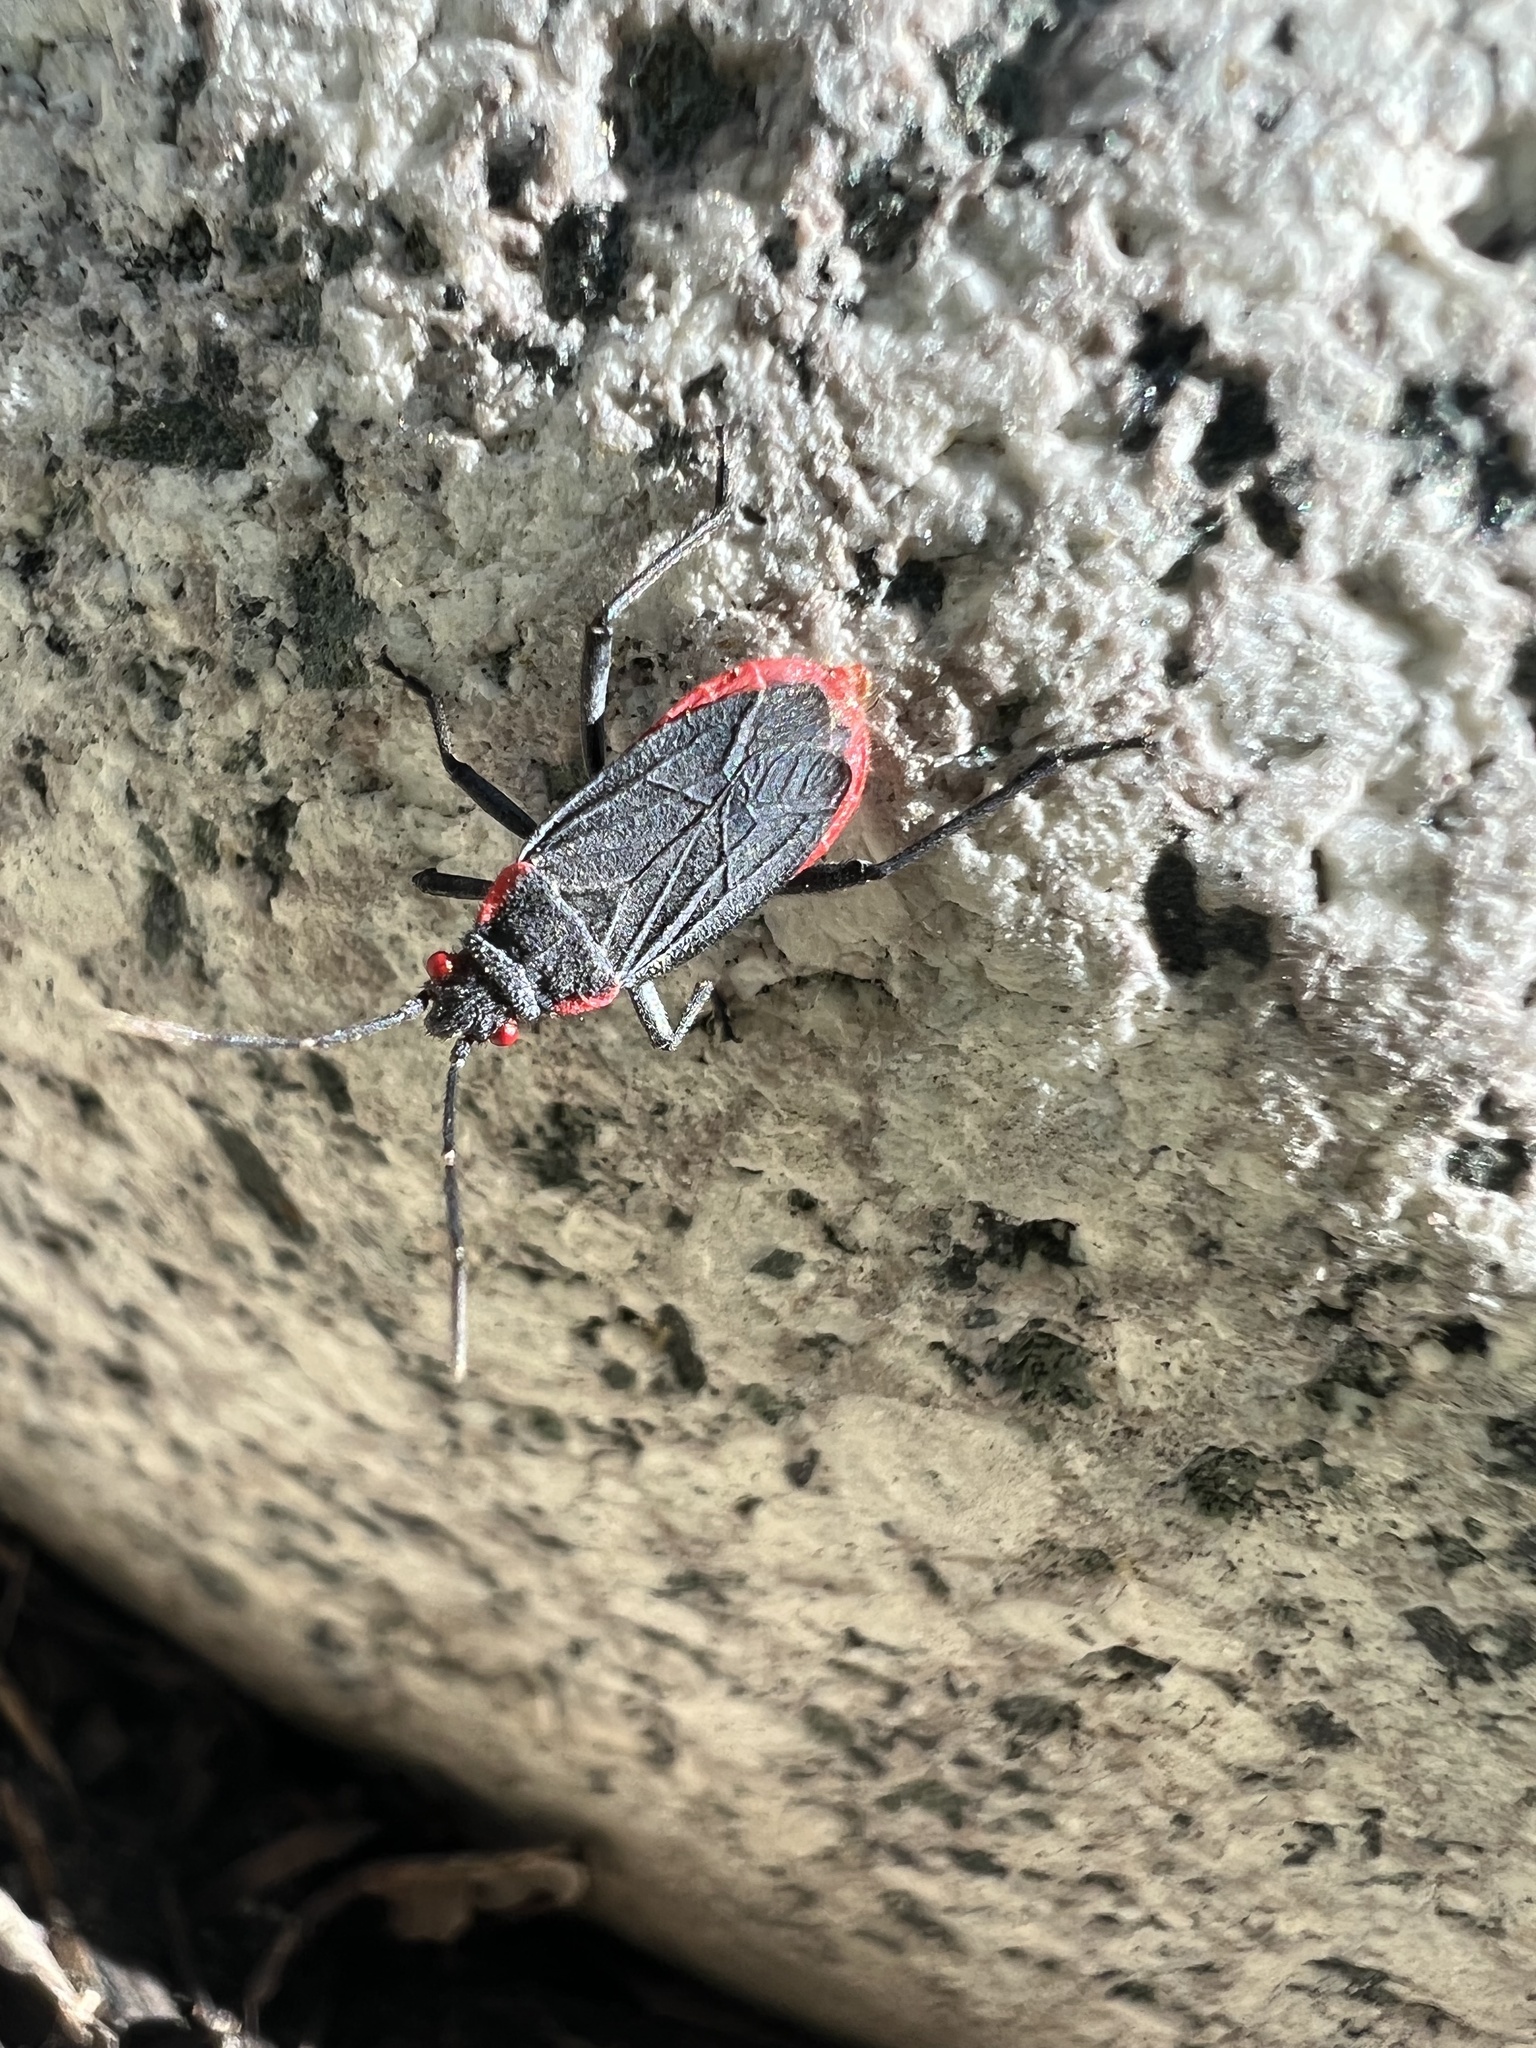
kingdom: Animalia
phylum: Arthropoda
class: Insecta
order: Hemiptera
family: Rhopalidae
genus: Jadera
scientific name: Jadera haematoloma
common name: Red-shouldered bug
